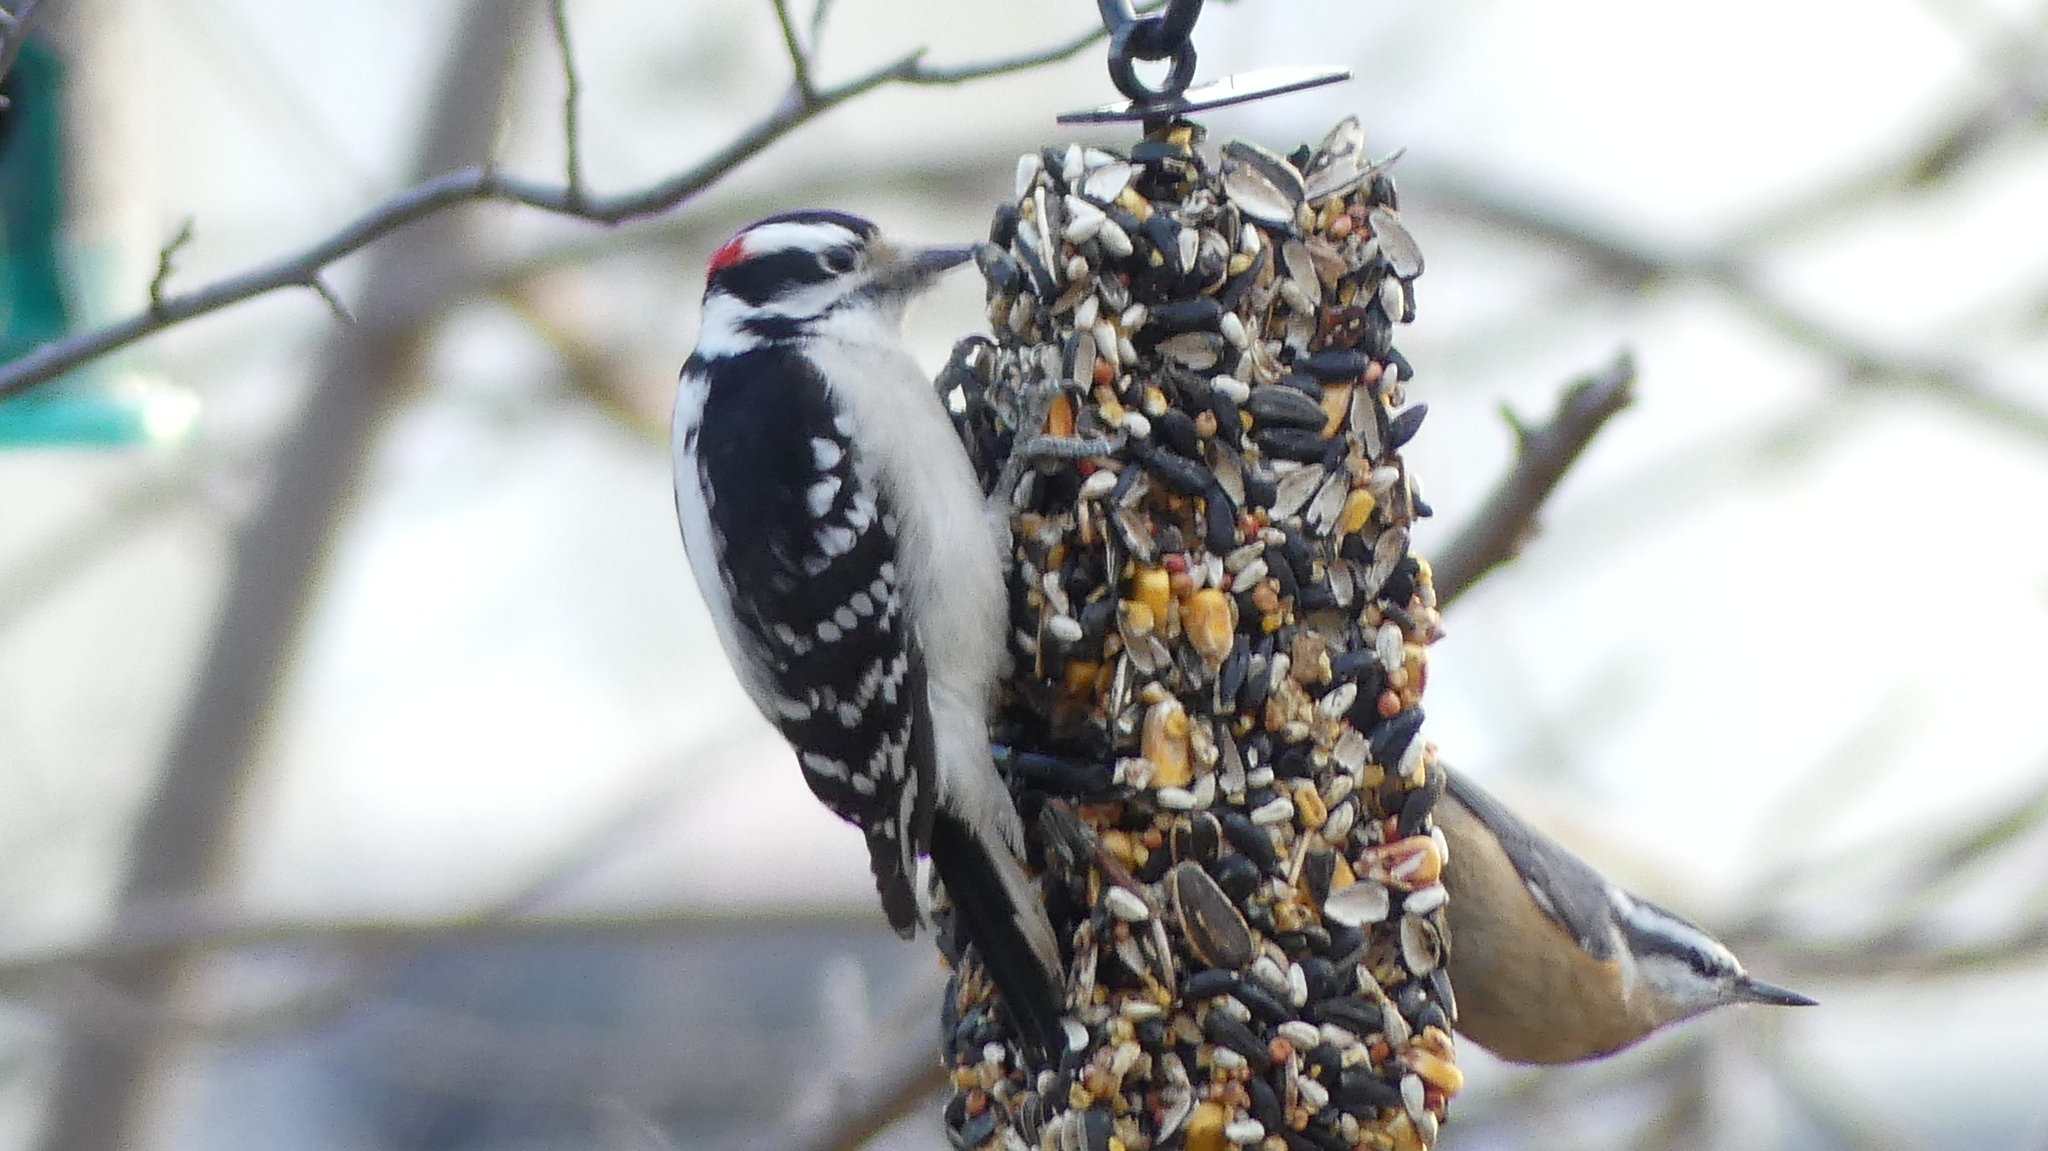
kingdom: Animalia
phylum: Chordata
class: Aves
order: Passeriformes
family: Sittidae
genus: Sitta
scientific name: Sitta canadensis
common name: Red-breasted nuthatch
